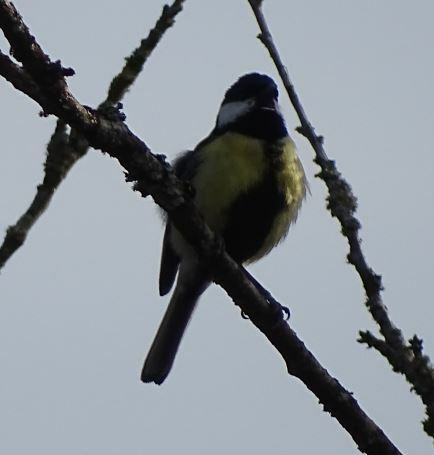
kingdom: Animalia
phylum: Chordata
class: Aves
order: Passeriformes
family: Paridae
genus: Parus
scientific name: Parus major
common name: Great tit
